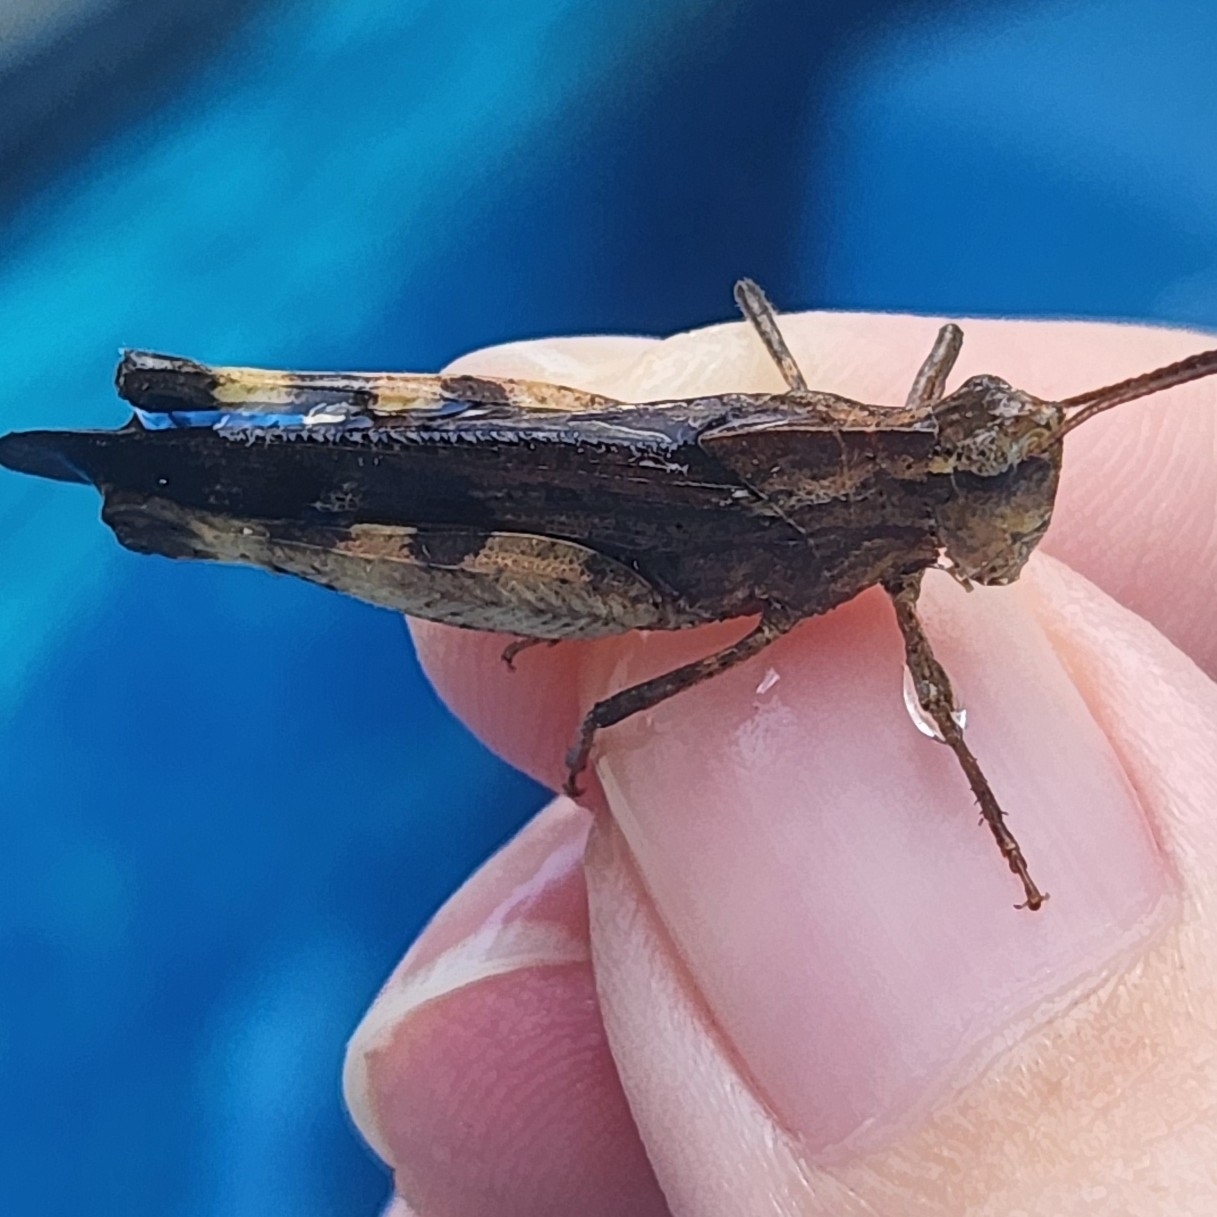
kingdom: Animalia
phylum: Arthropoda
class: Insecta
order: Orthoptera
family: Acrididae
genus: Chortophaga
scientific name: Chortophaga viridifasciata
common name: Green-striped grasshopper
